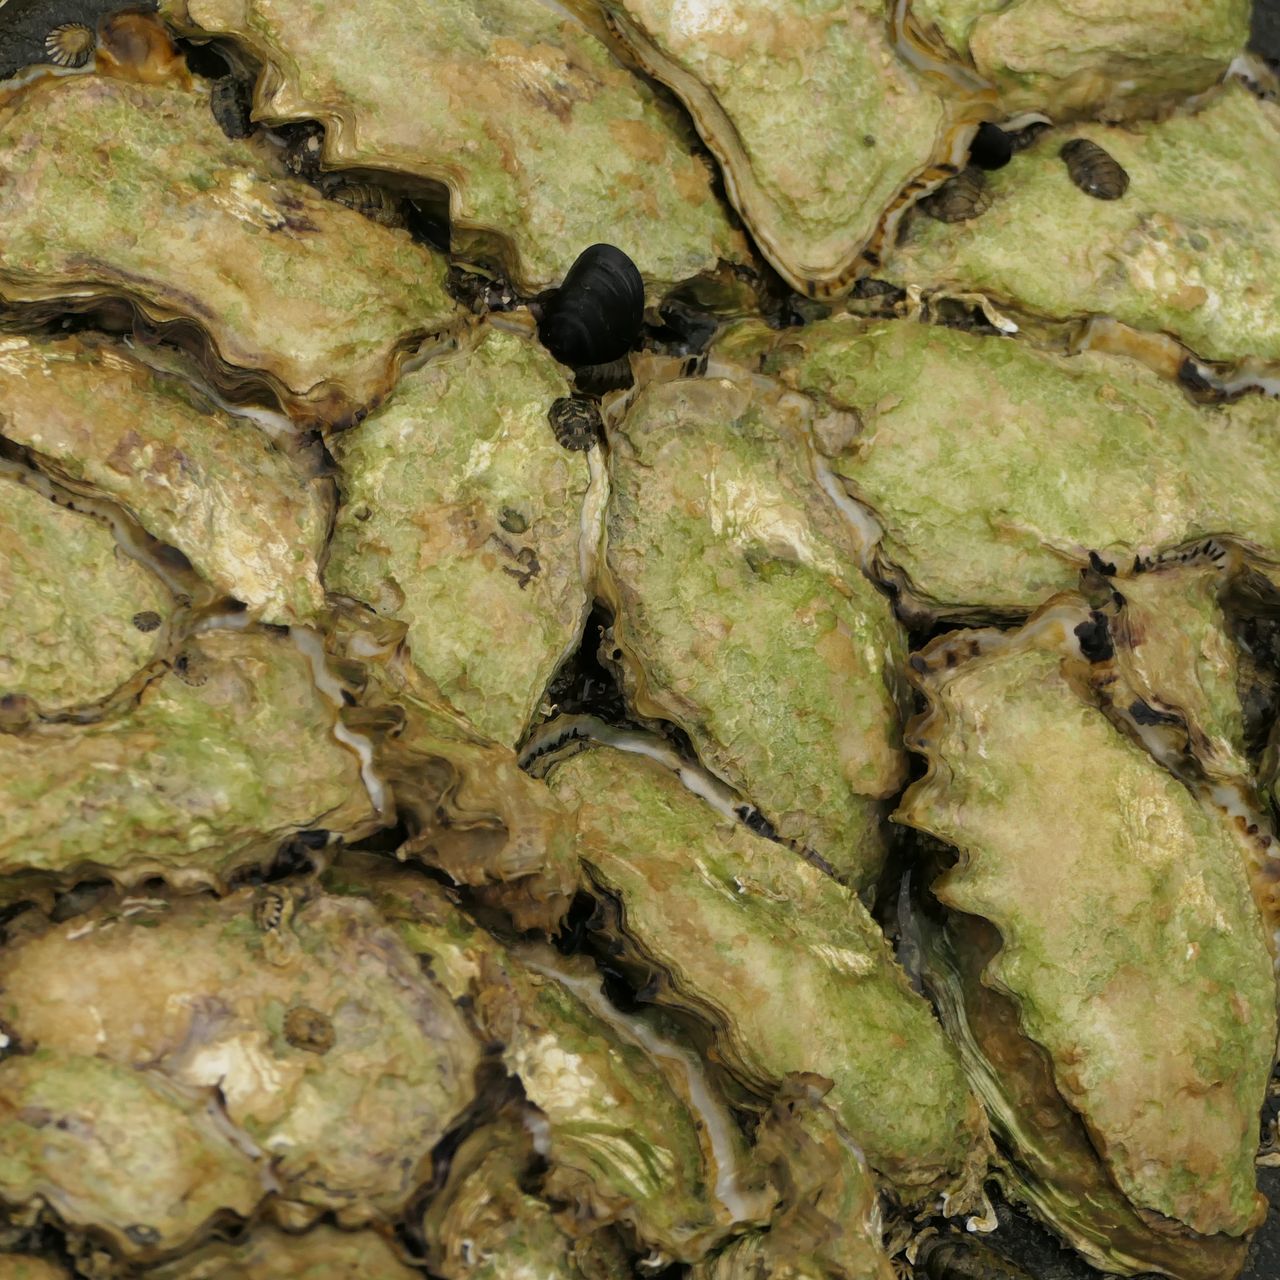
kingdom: Animalia
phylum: Mollusca
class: Bivalvia
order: Ostreida
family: Ostreidae
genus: Magallana
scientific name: Magallana gigas
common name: Pacific oyster
